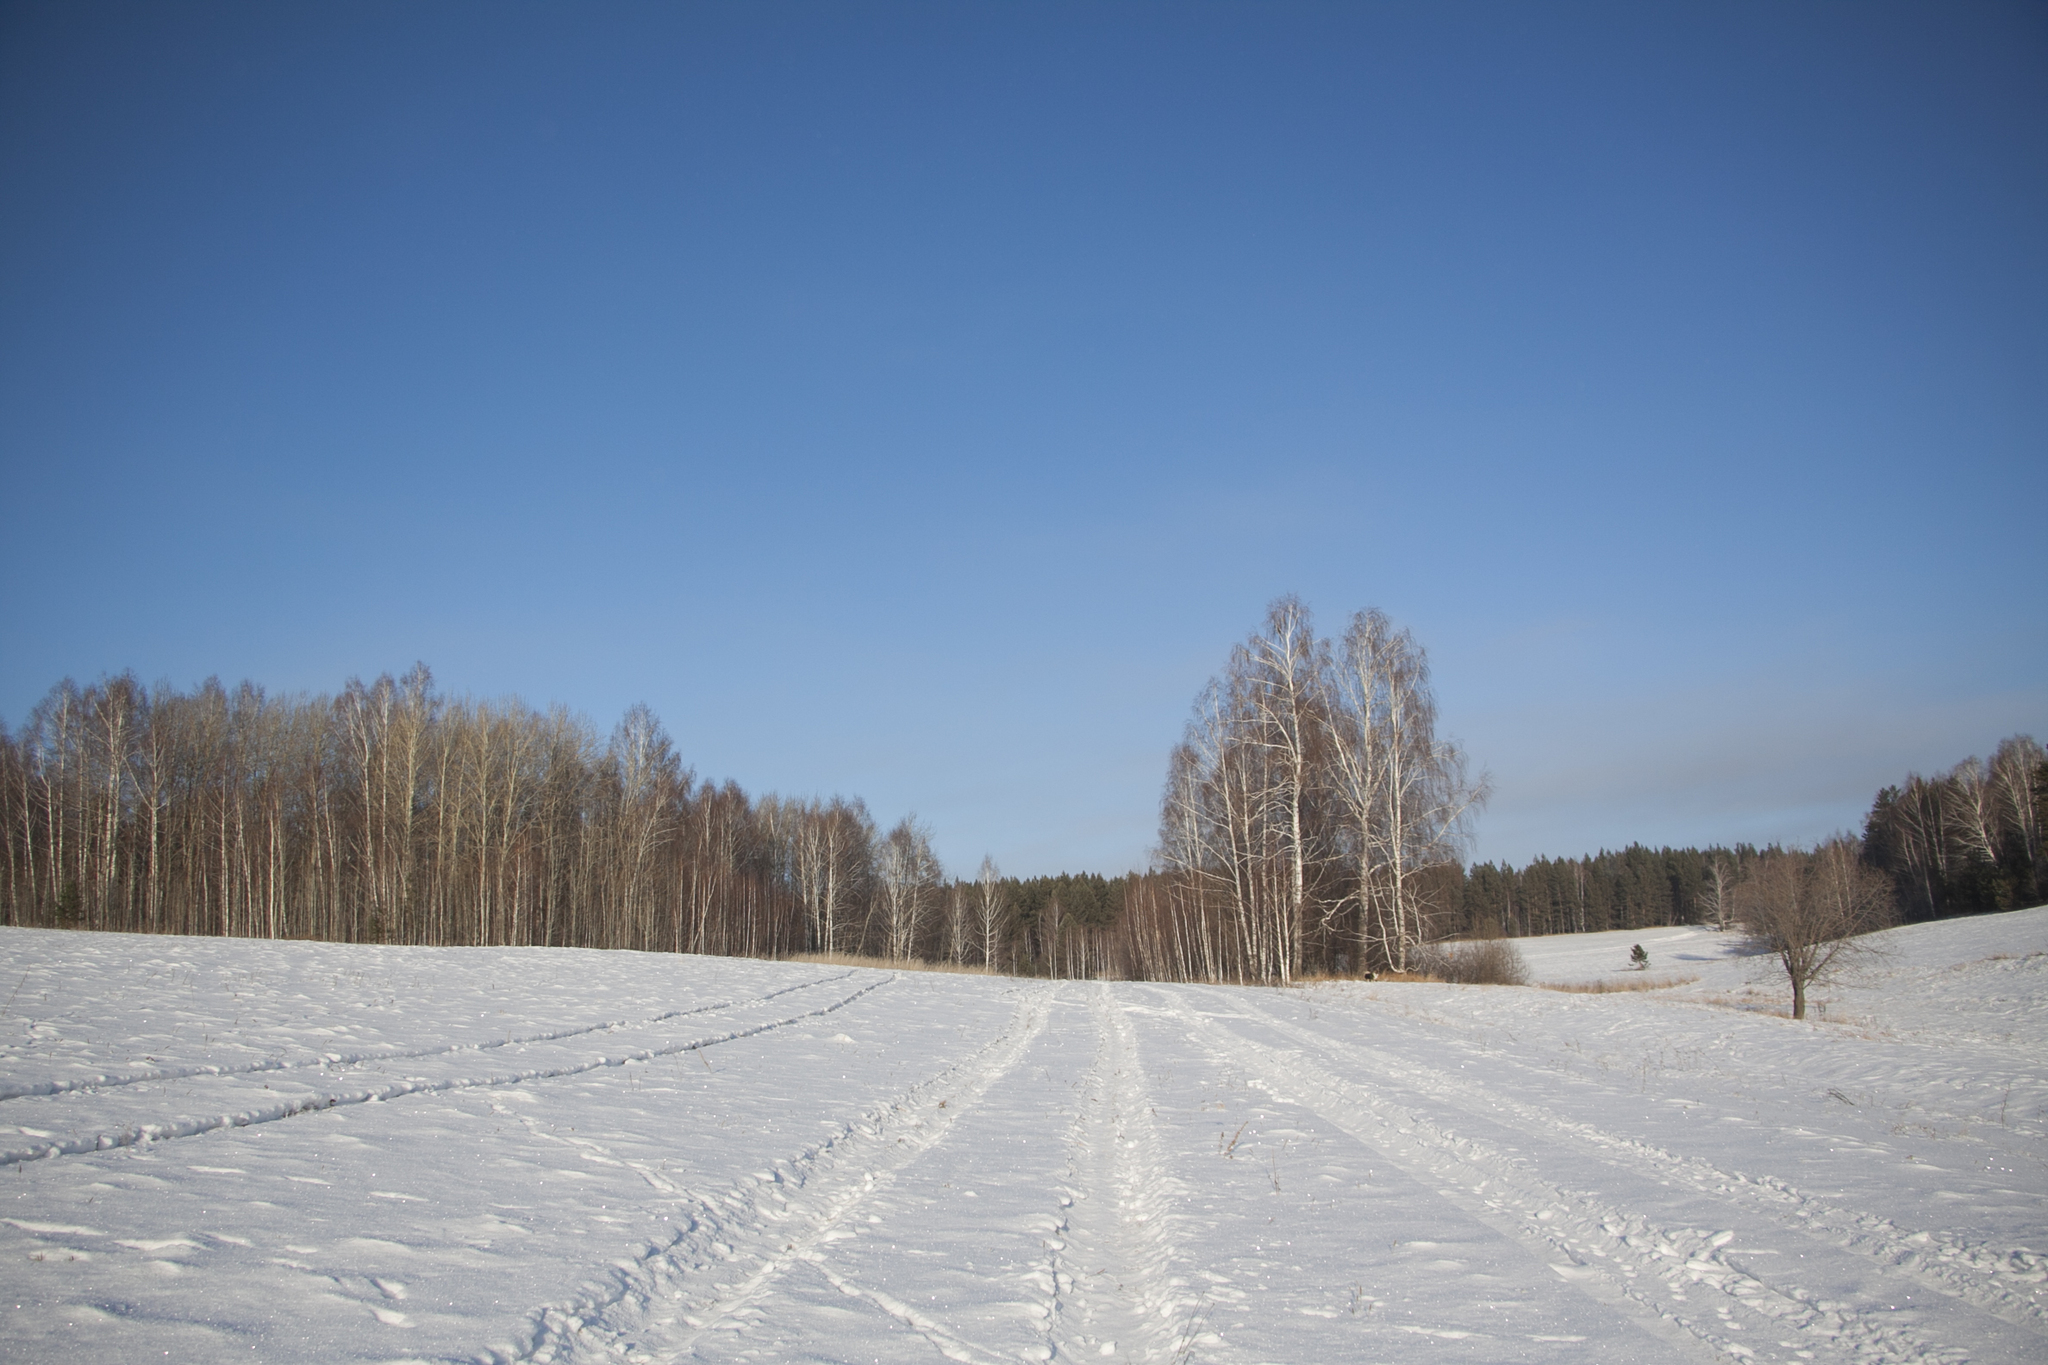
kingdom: Plantae
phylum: Tracheophyta
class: Magnoliopsida
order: Fagales
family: Betulaceae
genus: Betula
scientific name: Betula pendula
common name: Silver birch
